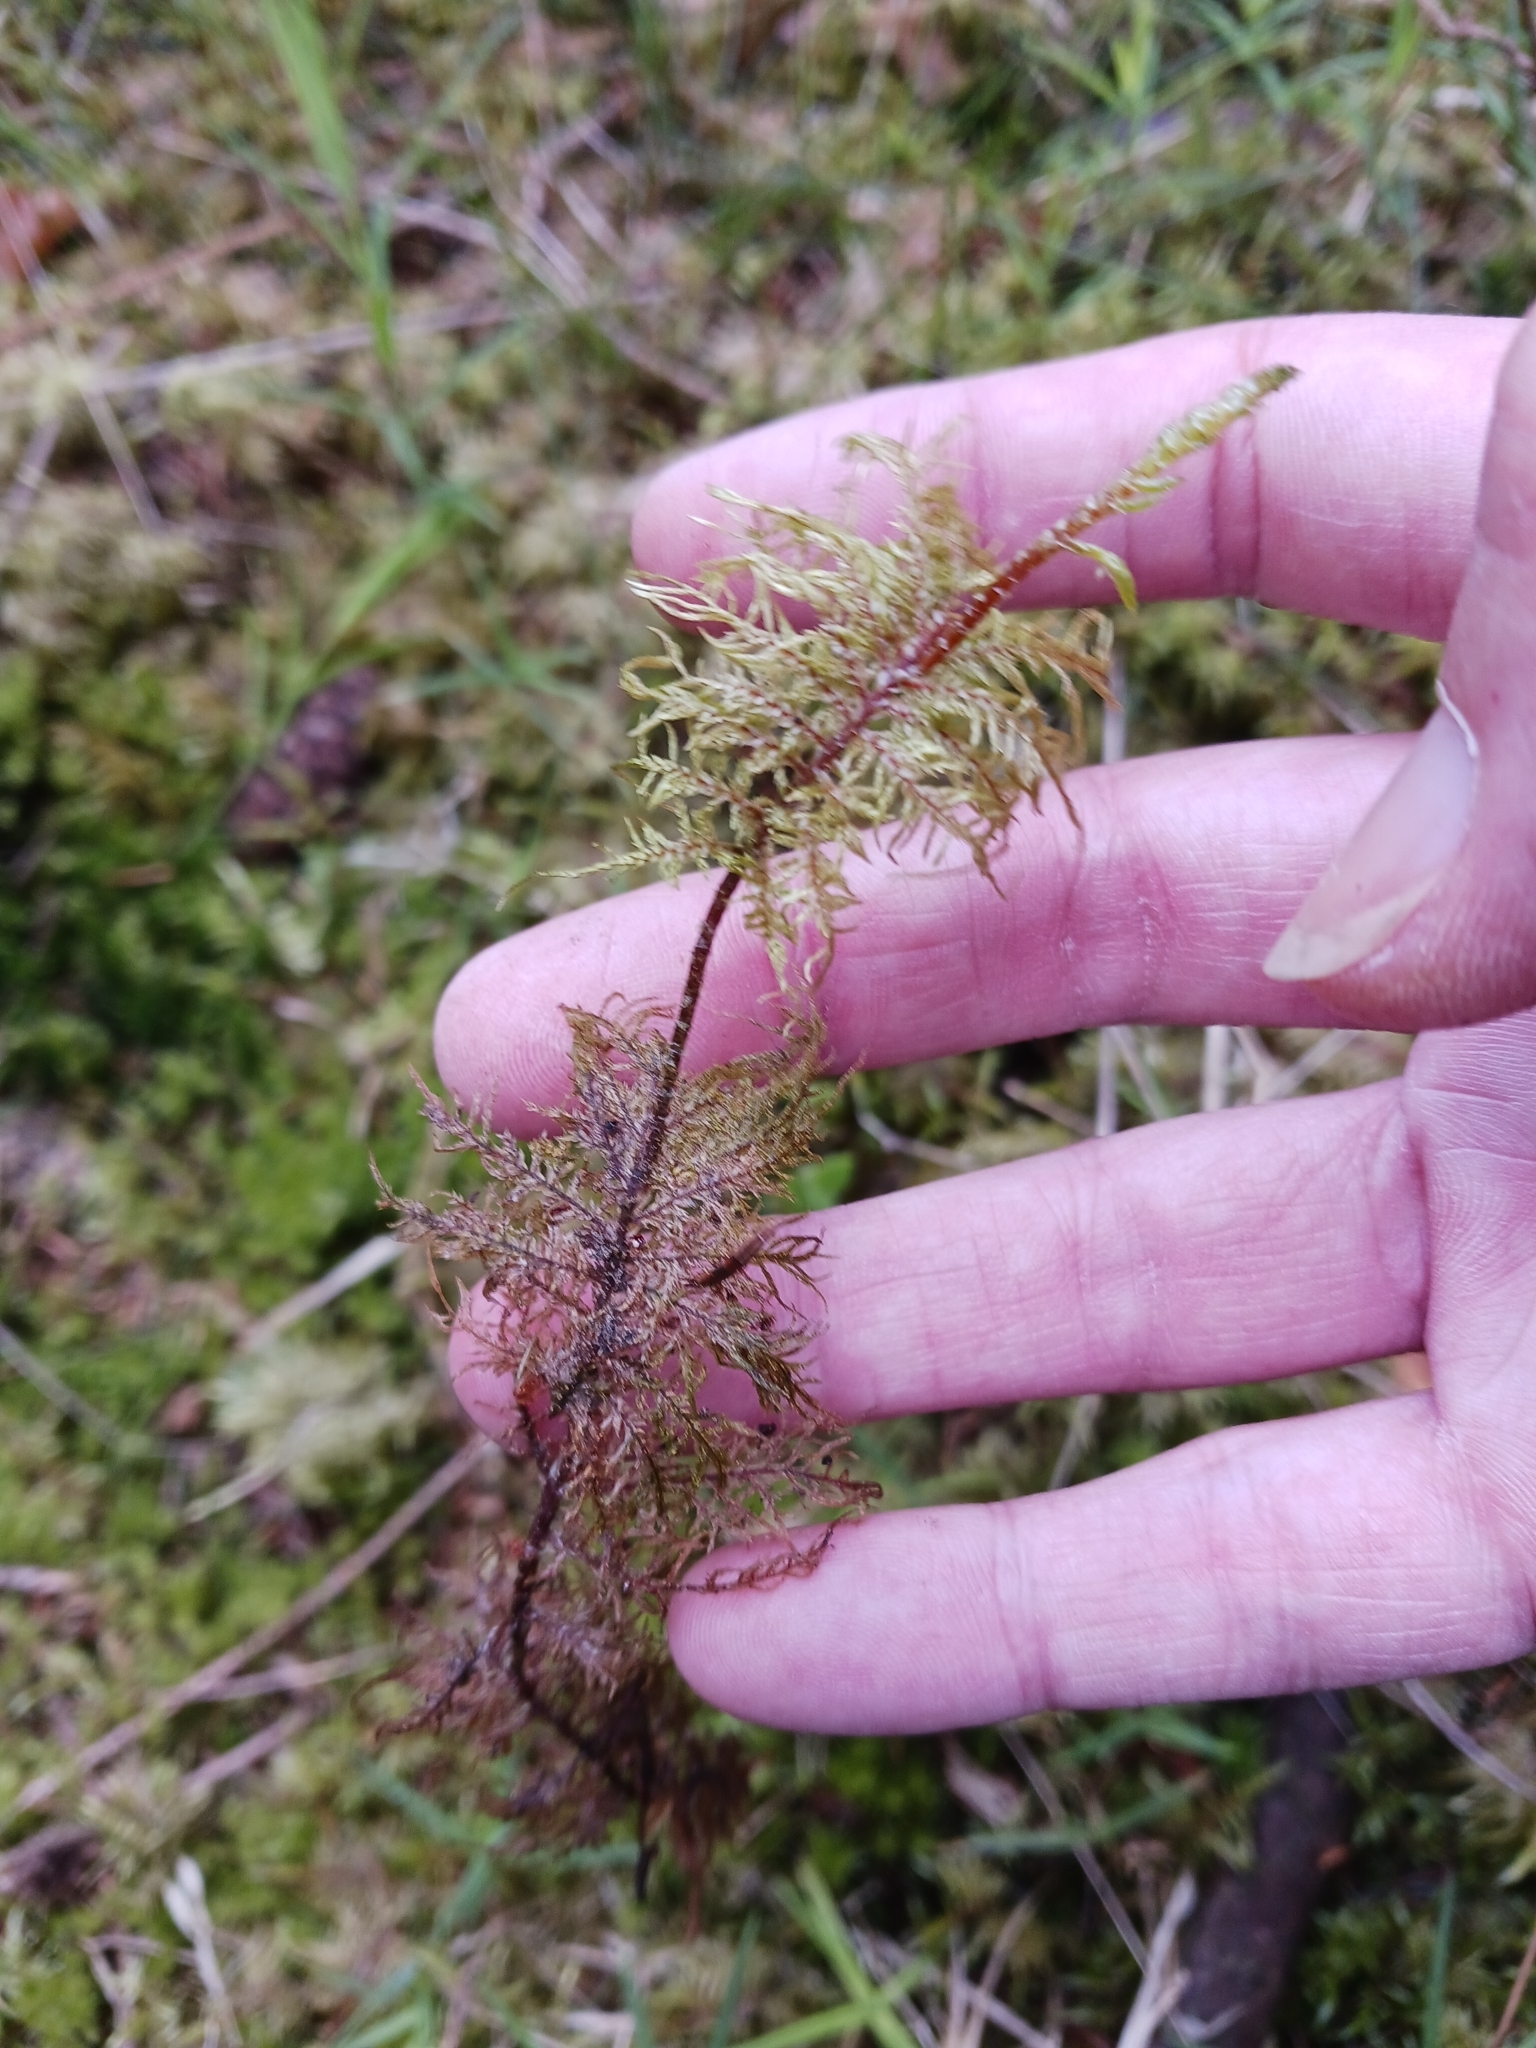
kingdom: Plantae
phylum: Bryophyta
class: Bryopsida
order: Hypnales
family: Hylocomiaceae
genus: Hylocomium
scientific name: Hylocomium splendens
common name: Stairstep moss
